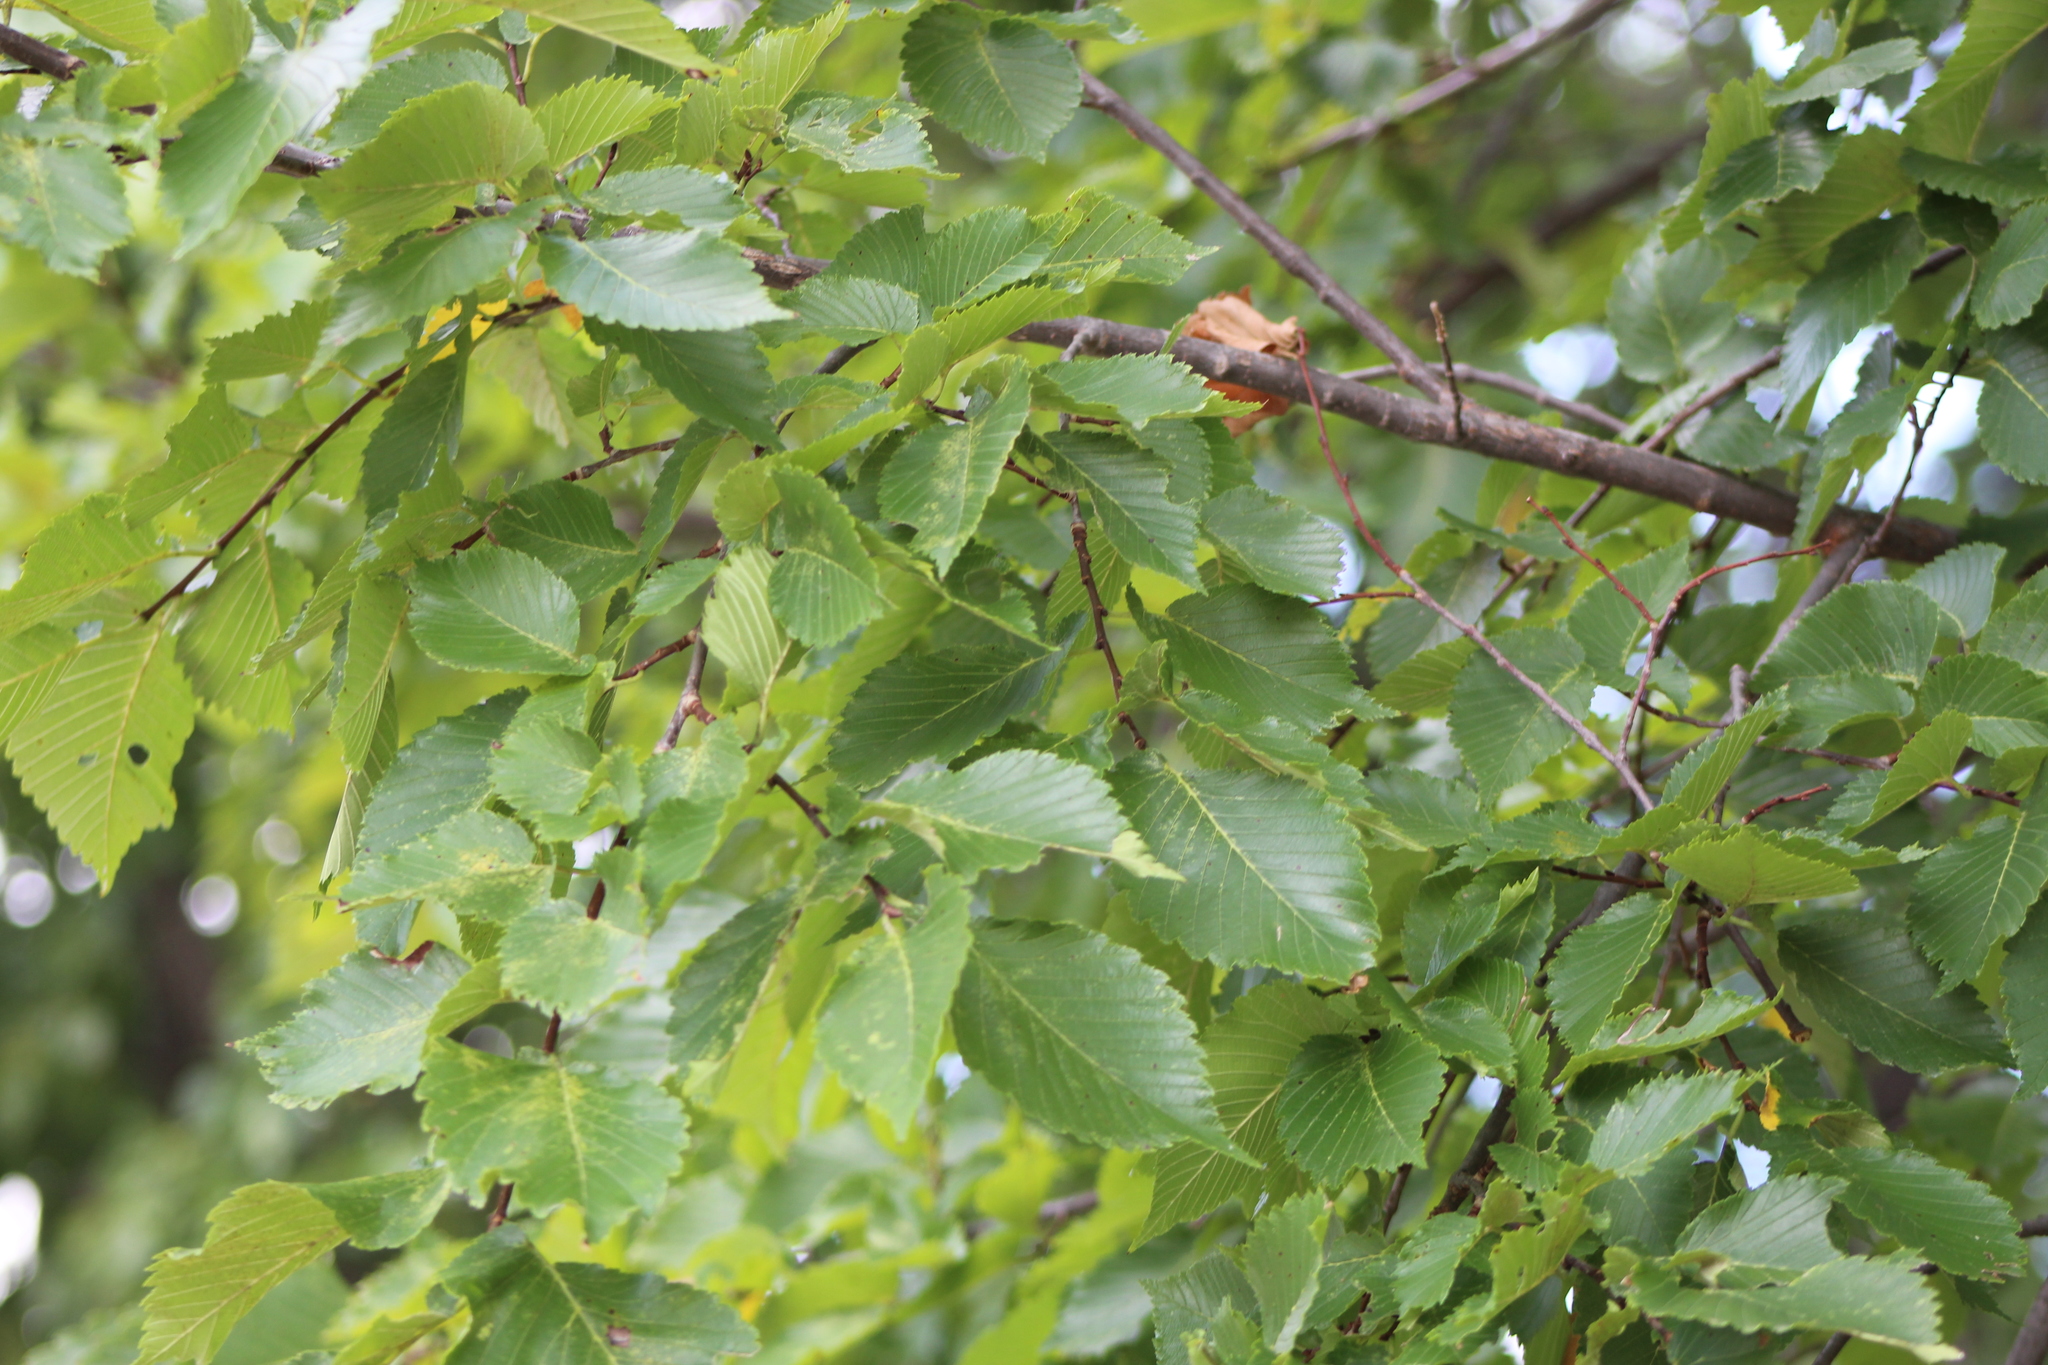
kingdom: Plantae
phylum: Tracheophyta
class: Magnoliopsida
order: Rosales
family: Ulmaceae
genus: Ulmus
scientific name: Ulmus americana
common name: American elm
